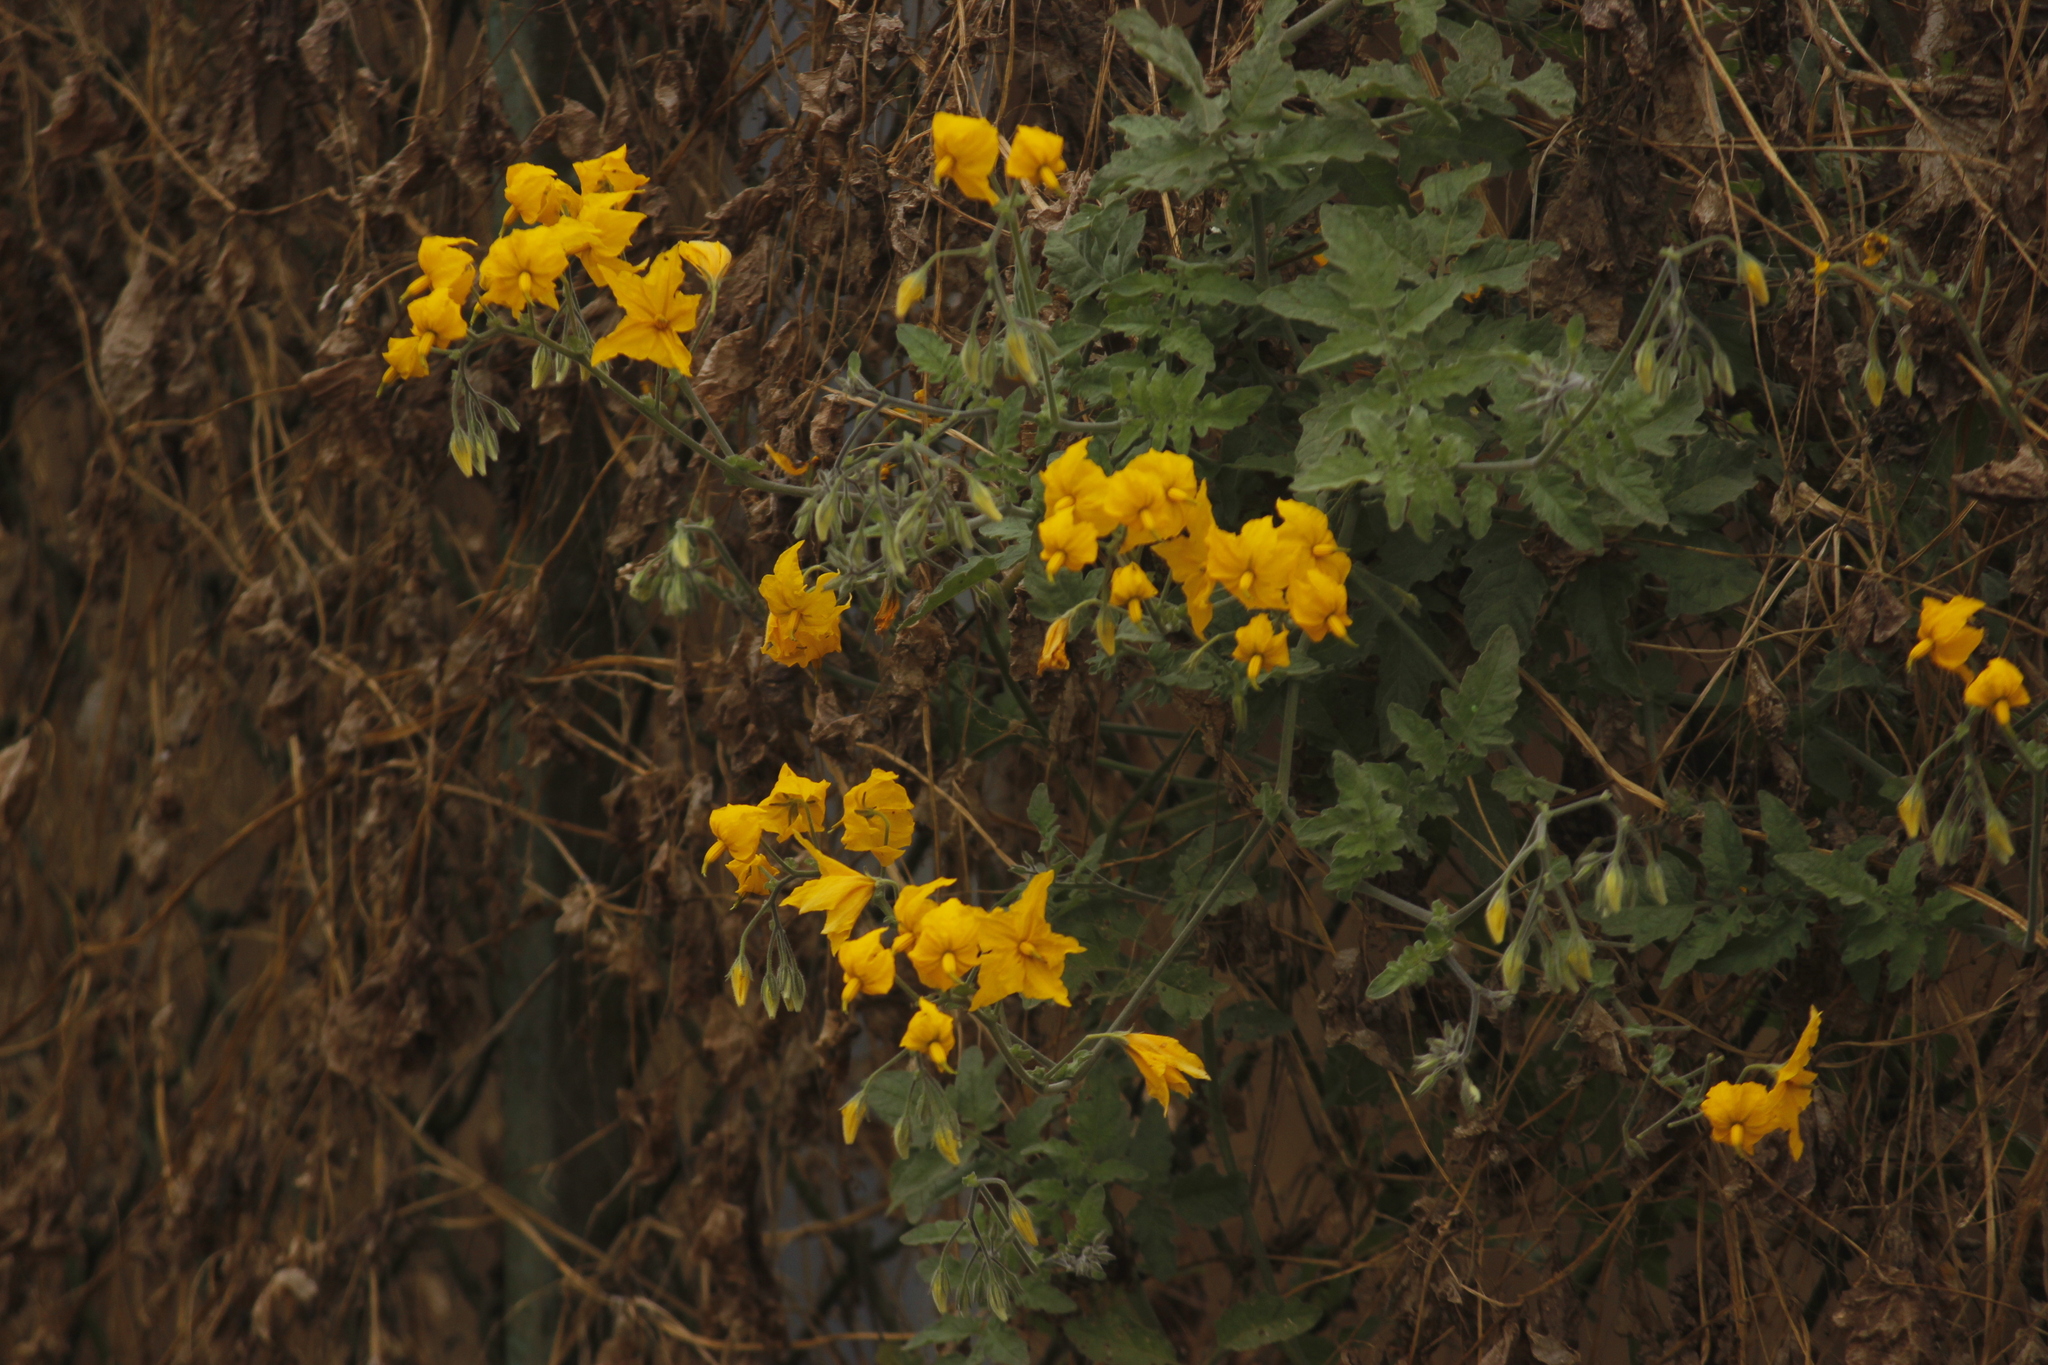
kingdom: Plantae
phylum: Tracheophyta
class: Magnoliopsida
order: Solanales
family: Solanaceae
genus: Solanum
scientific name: Solanum peruvianum
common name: Peruvian nightshade
